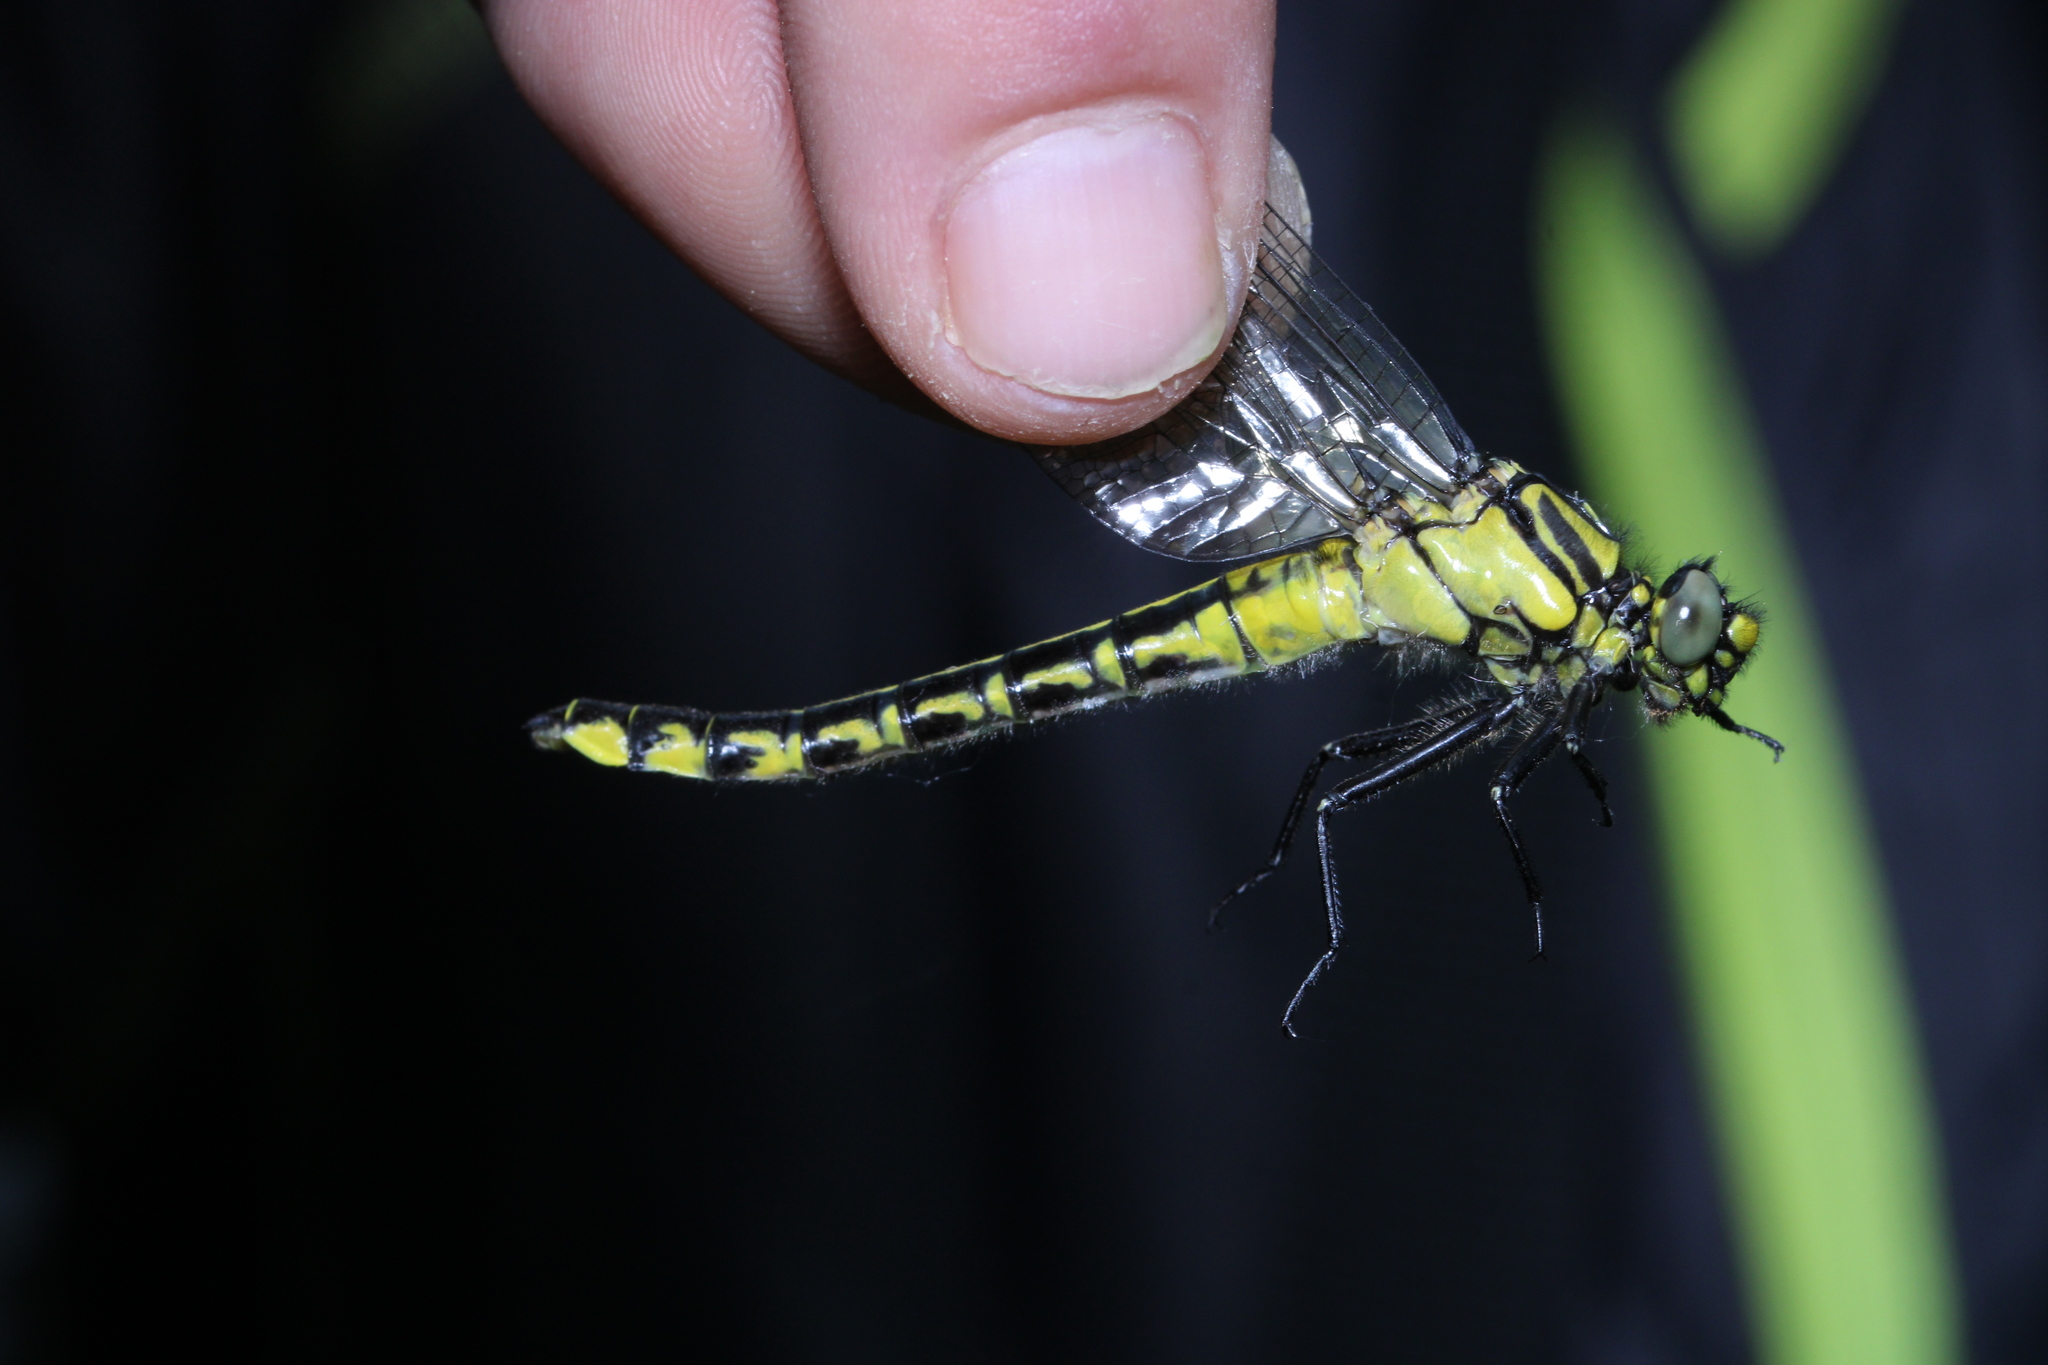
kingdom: Animalia
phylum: Arthropoda
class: Insecta
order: Odonata
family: Gomphidae
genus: Gomphus
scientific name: Gomphus vulgatissimus
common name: Club-tailed dragonfly
